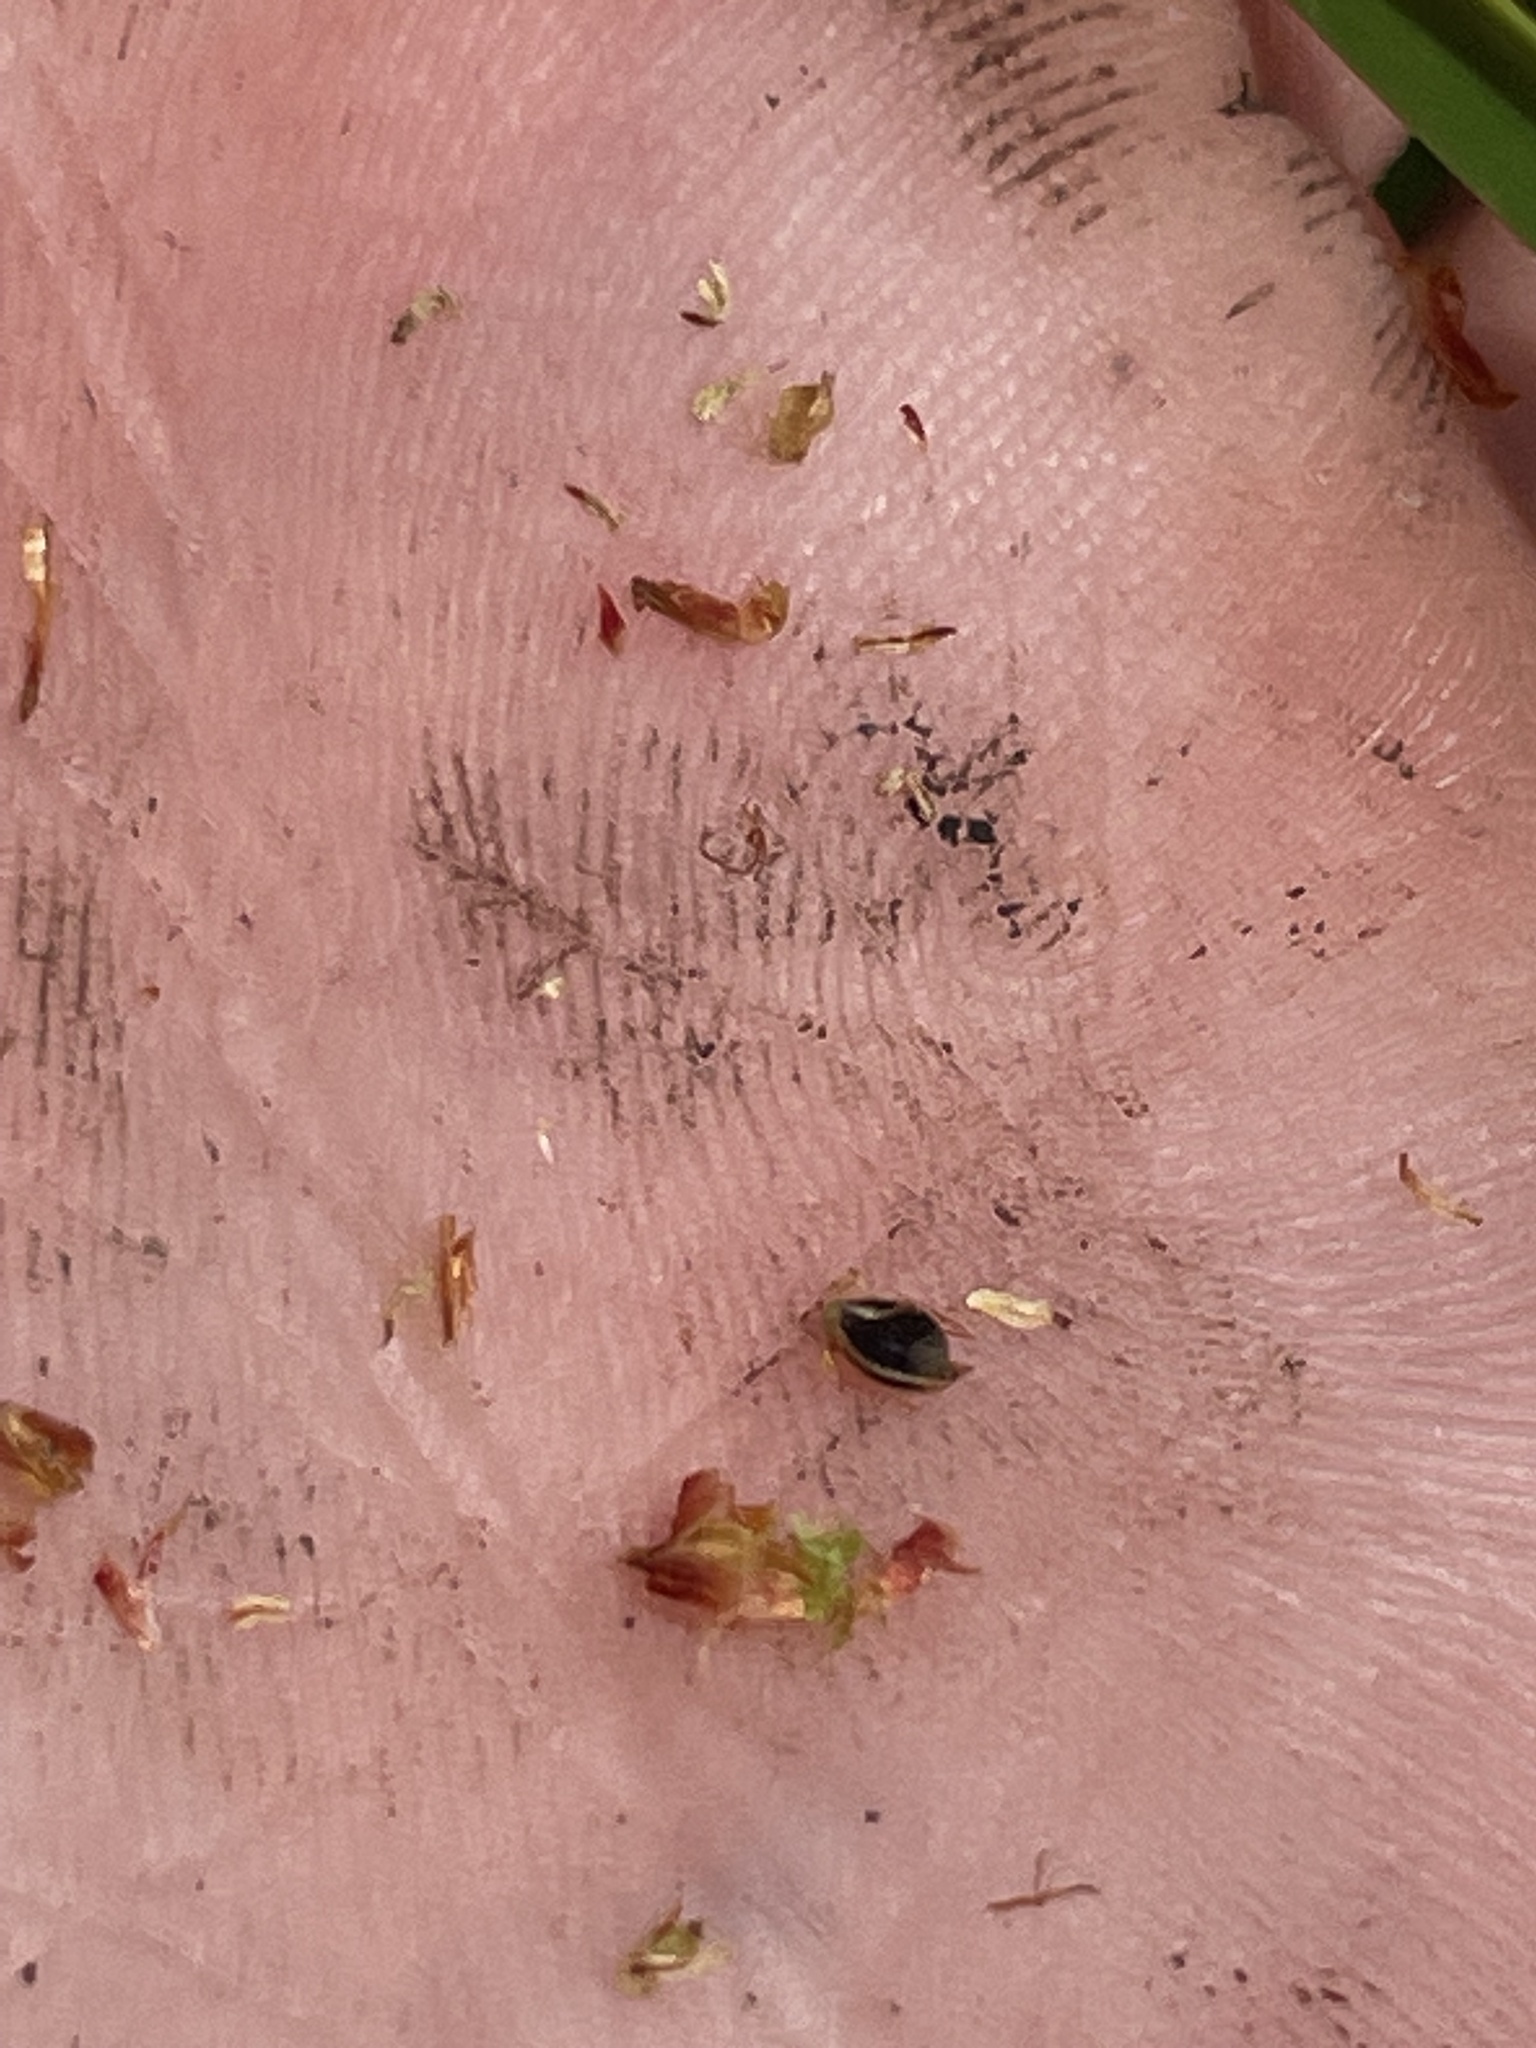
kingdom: Plantae
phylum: Tracheophyta
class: Liliopsida
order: Poales
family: Cyperaceae
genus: Schoenoplectus
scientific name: Schoenoplectus pungens
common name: Sharp club-rush
